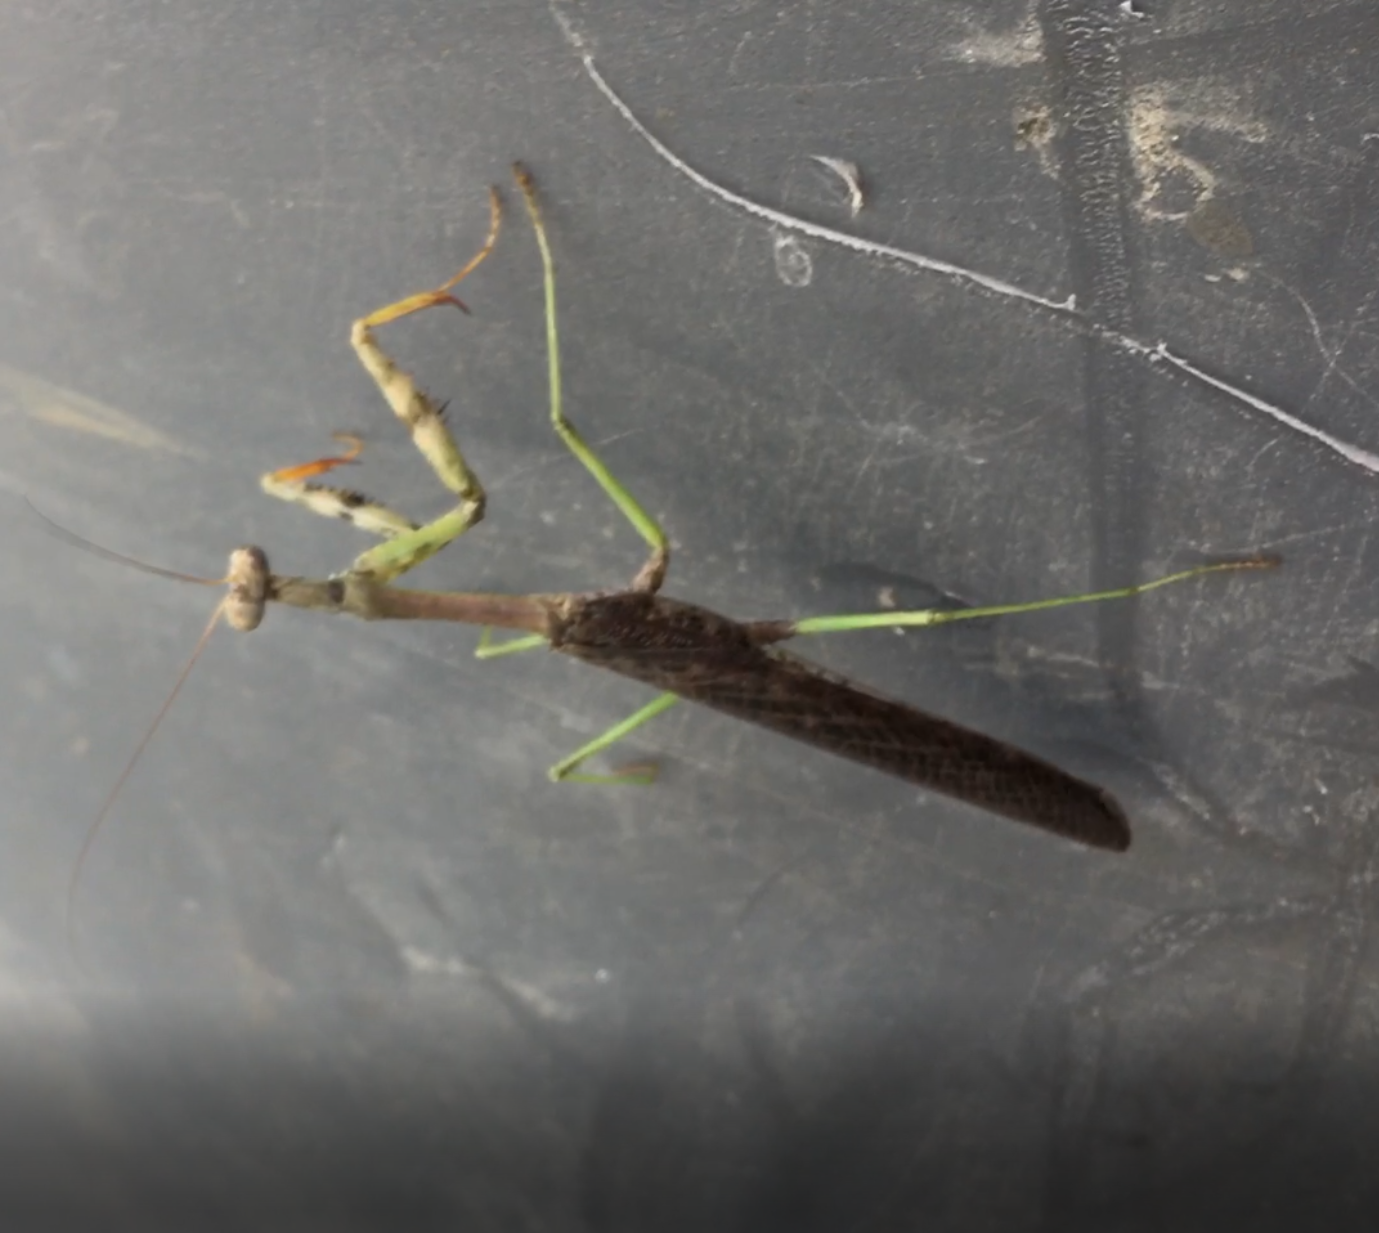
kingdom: Animalia
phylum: Arthropoda
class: Insecta
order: Mantodea
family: Mantidae
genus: Stagmomantis
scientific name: Stagmomantis carolina
